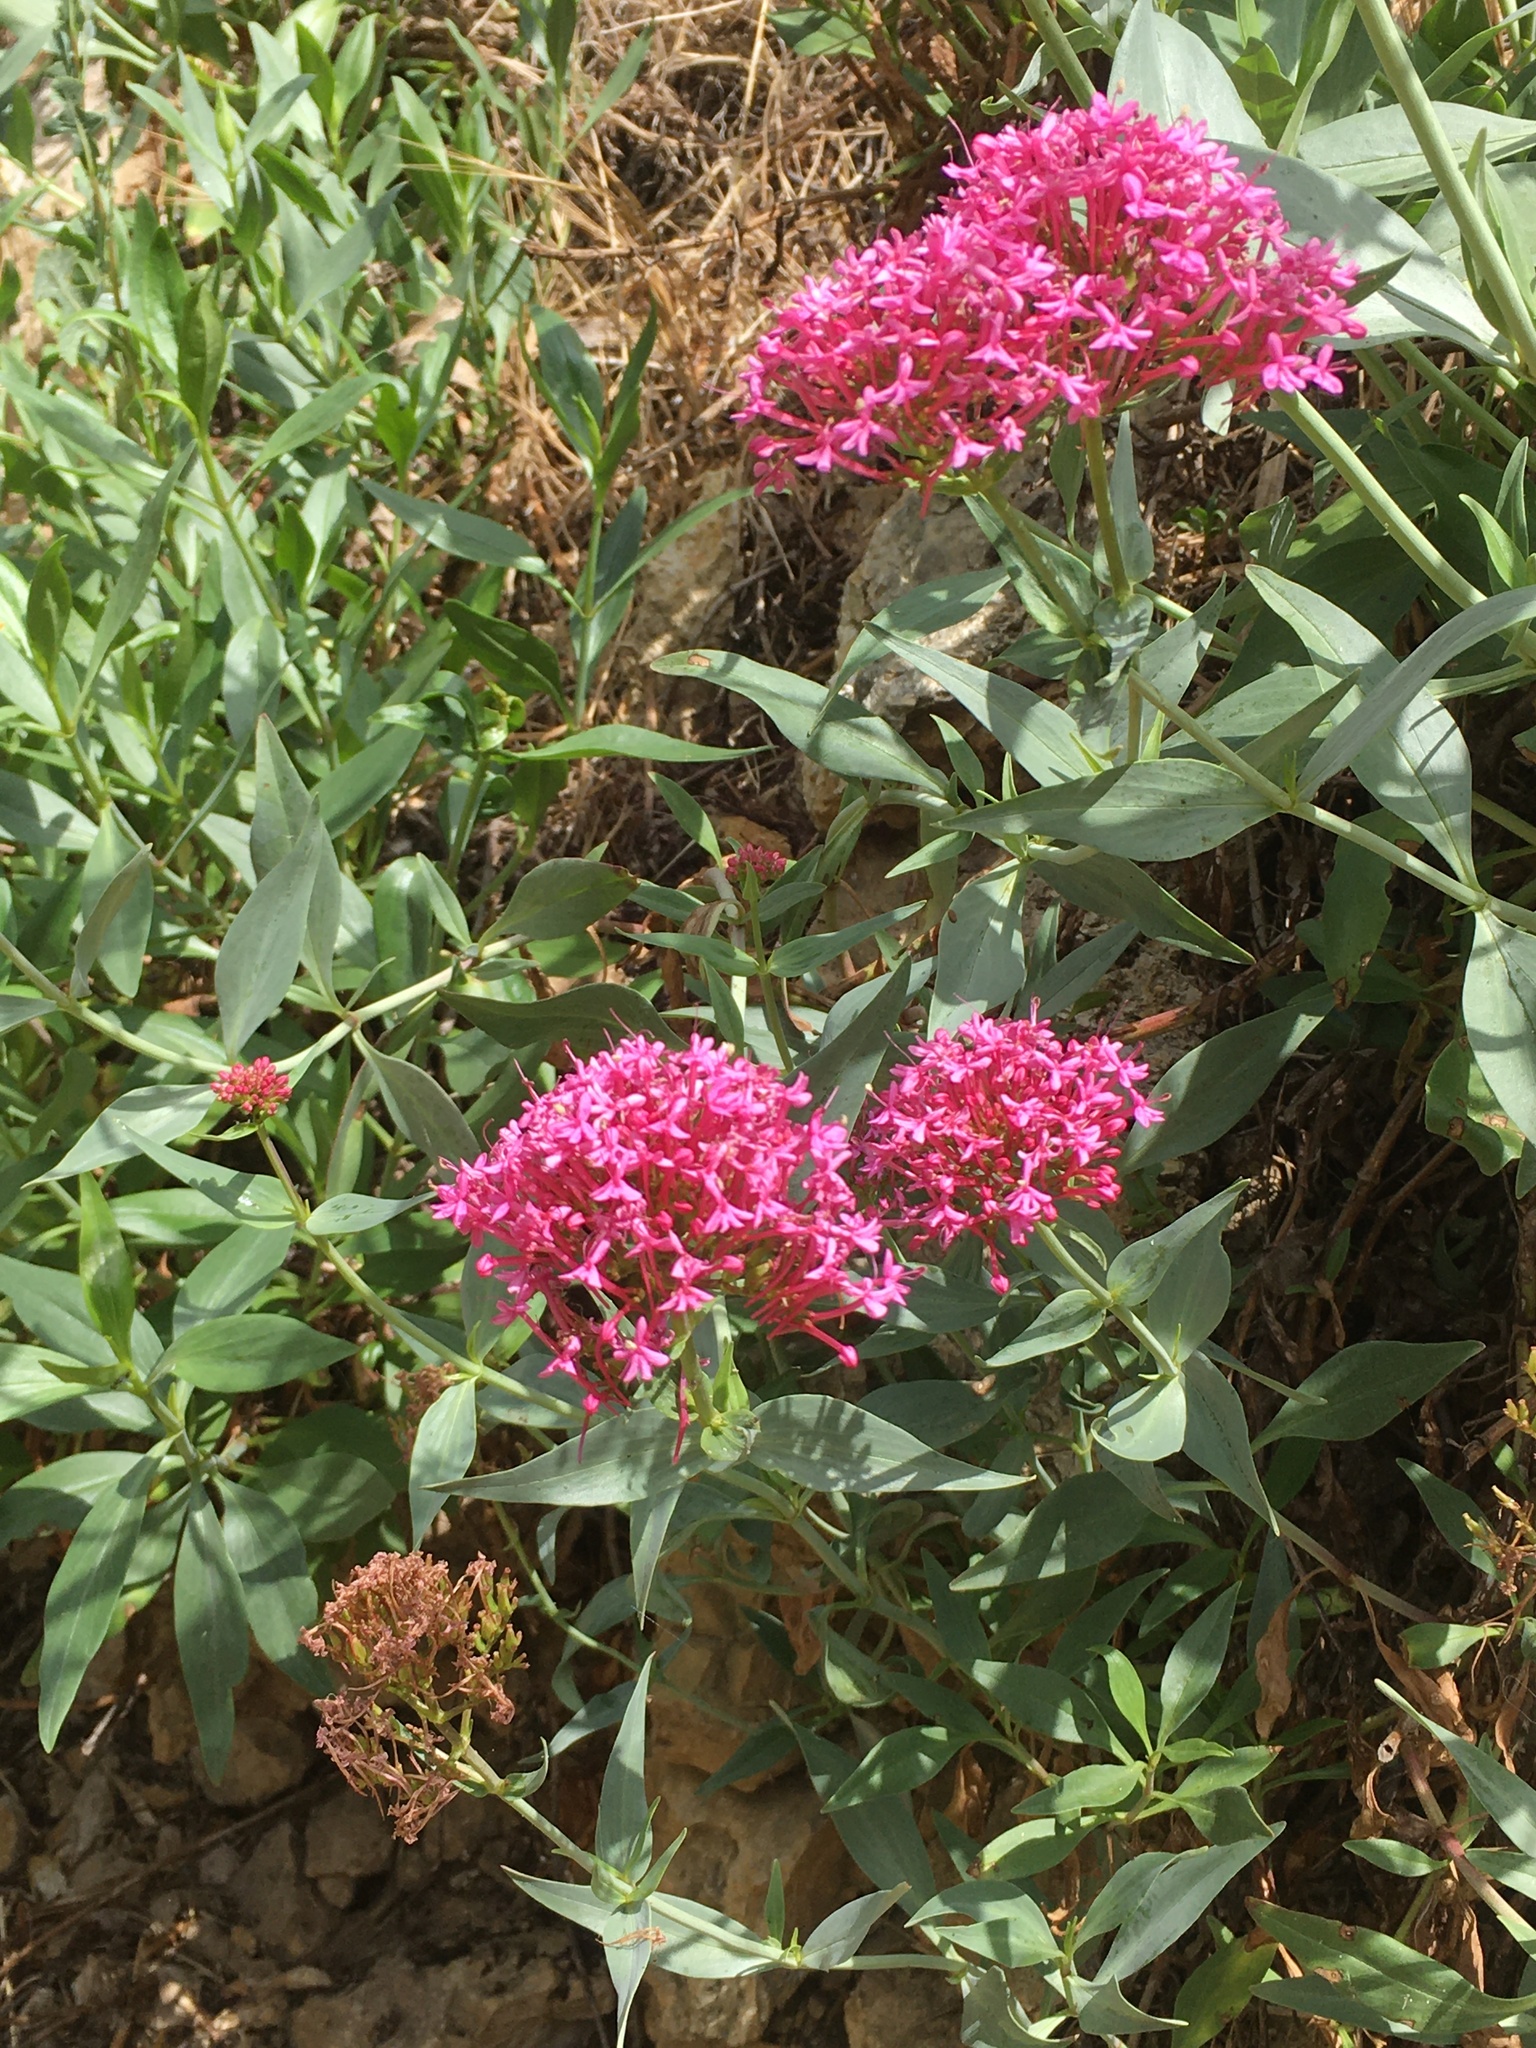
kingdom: Plantae
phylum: Tracheophyta
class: Magnoliopsida
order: Dipsacales
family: Caprifoliaceae
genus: Centranthus
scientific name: Centranthus ruber
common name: Red valerian
